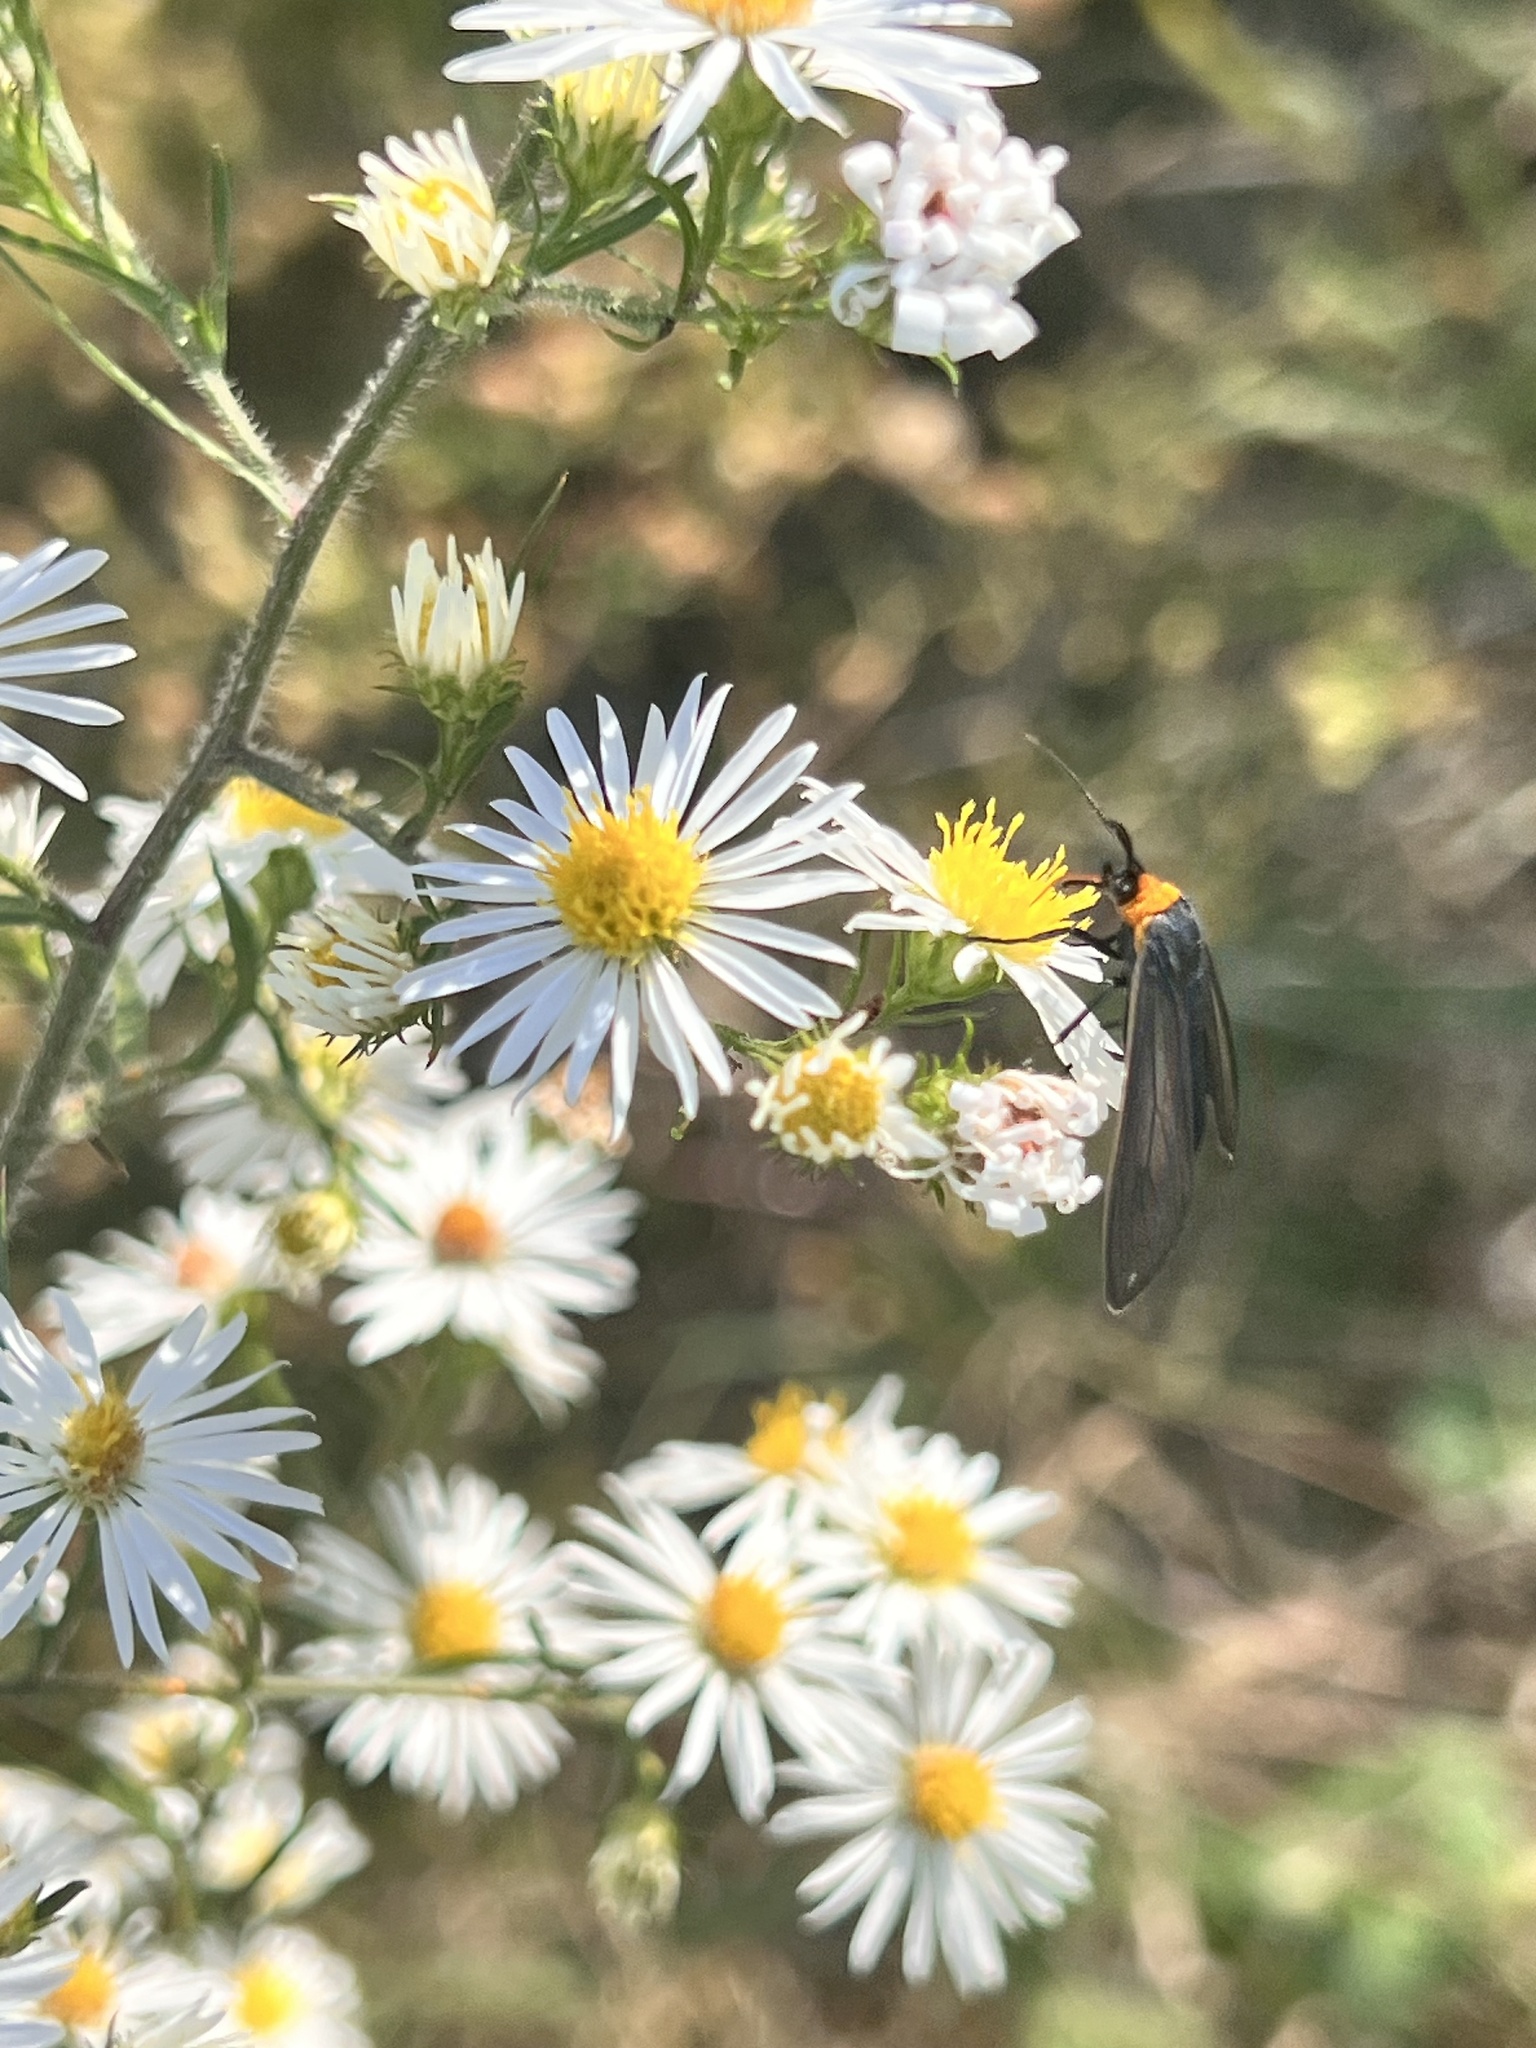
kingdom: Animalia
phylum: Arthropoda
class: Insecta
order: Lepidoptera
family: Erebidae
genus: Cisseps
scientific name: Cisseps fulvicollis
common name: Yellow-collared scape moth
